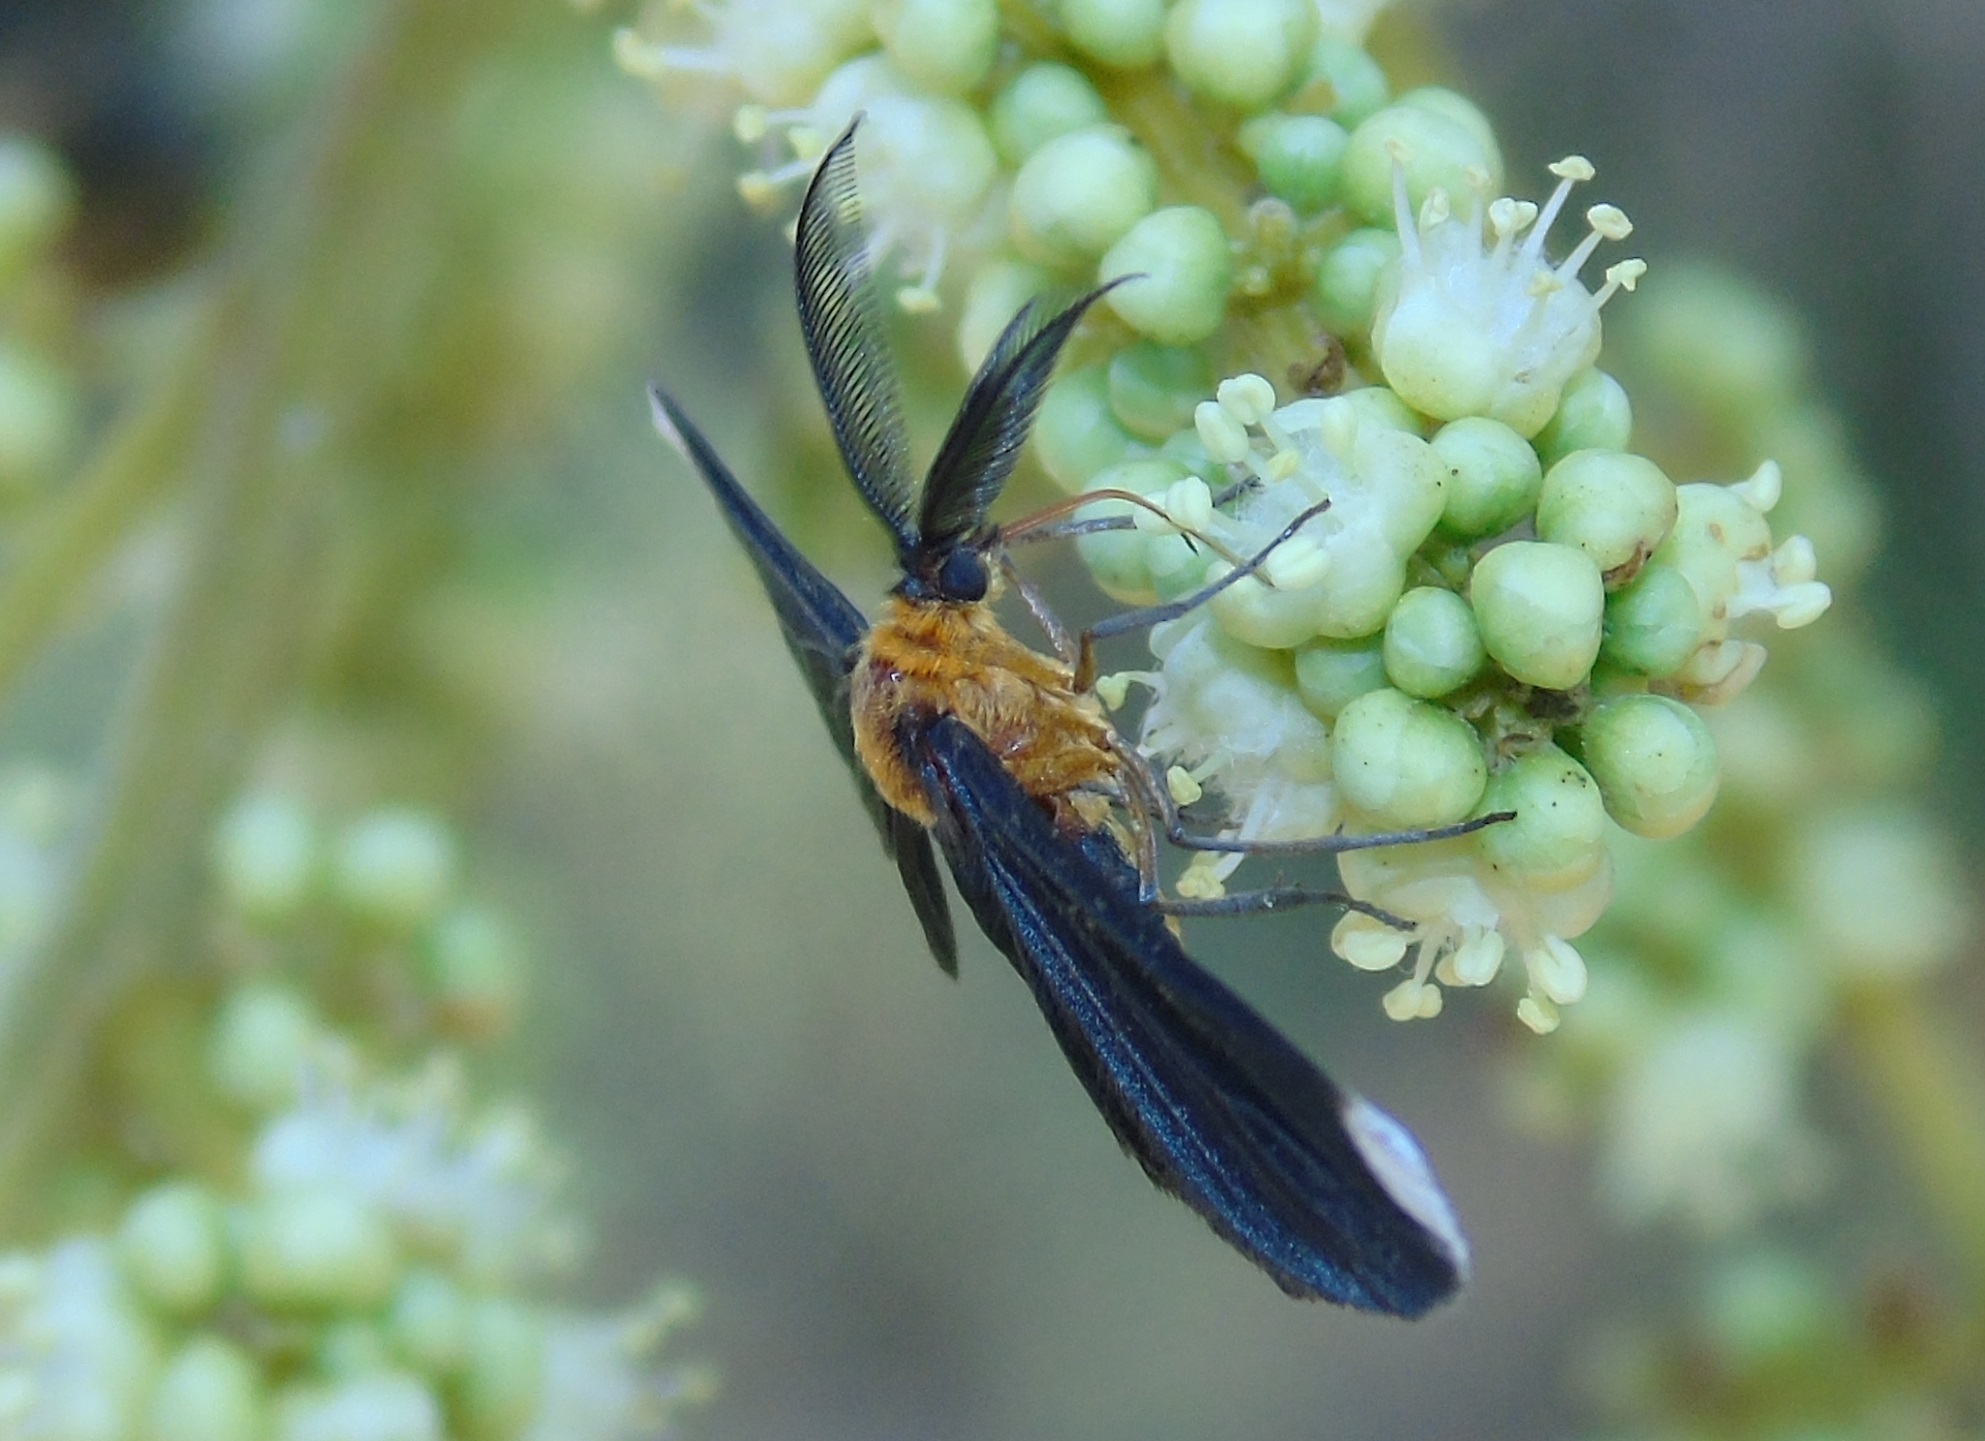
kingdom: Animalia
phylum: Arthropoda
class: Insecta
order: Lepidoptera
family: Geometridae
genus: Melanchroia
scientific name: Melanchroia chephise
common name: White-tipped black
